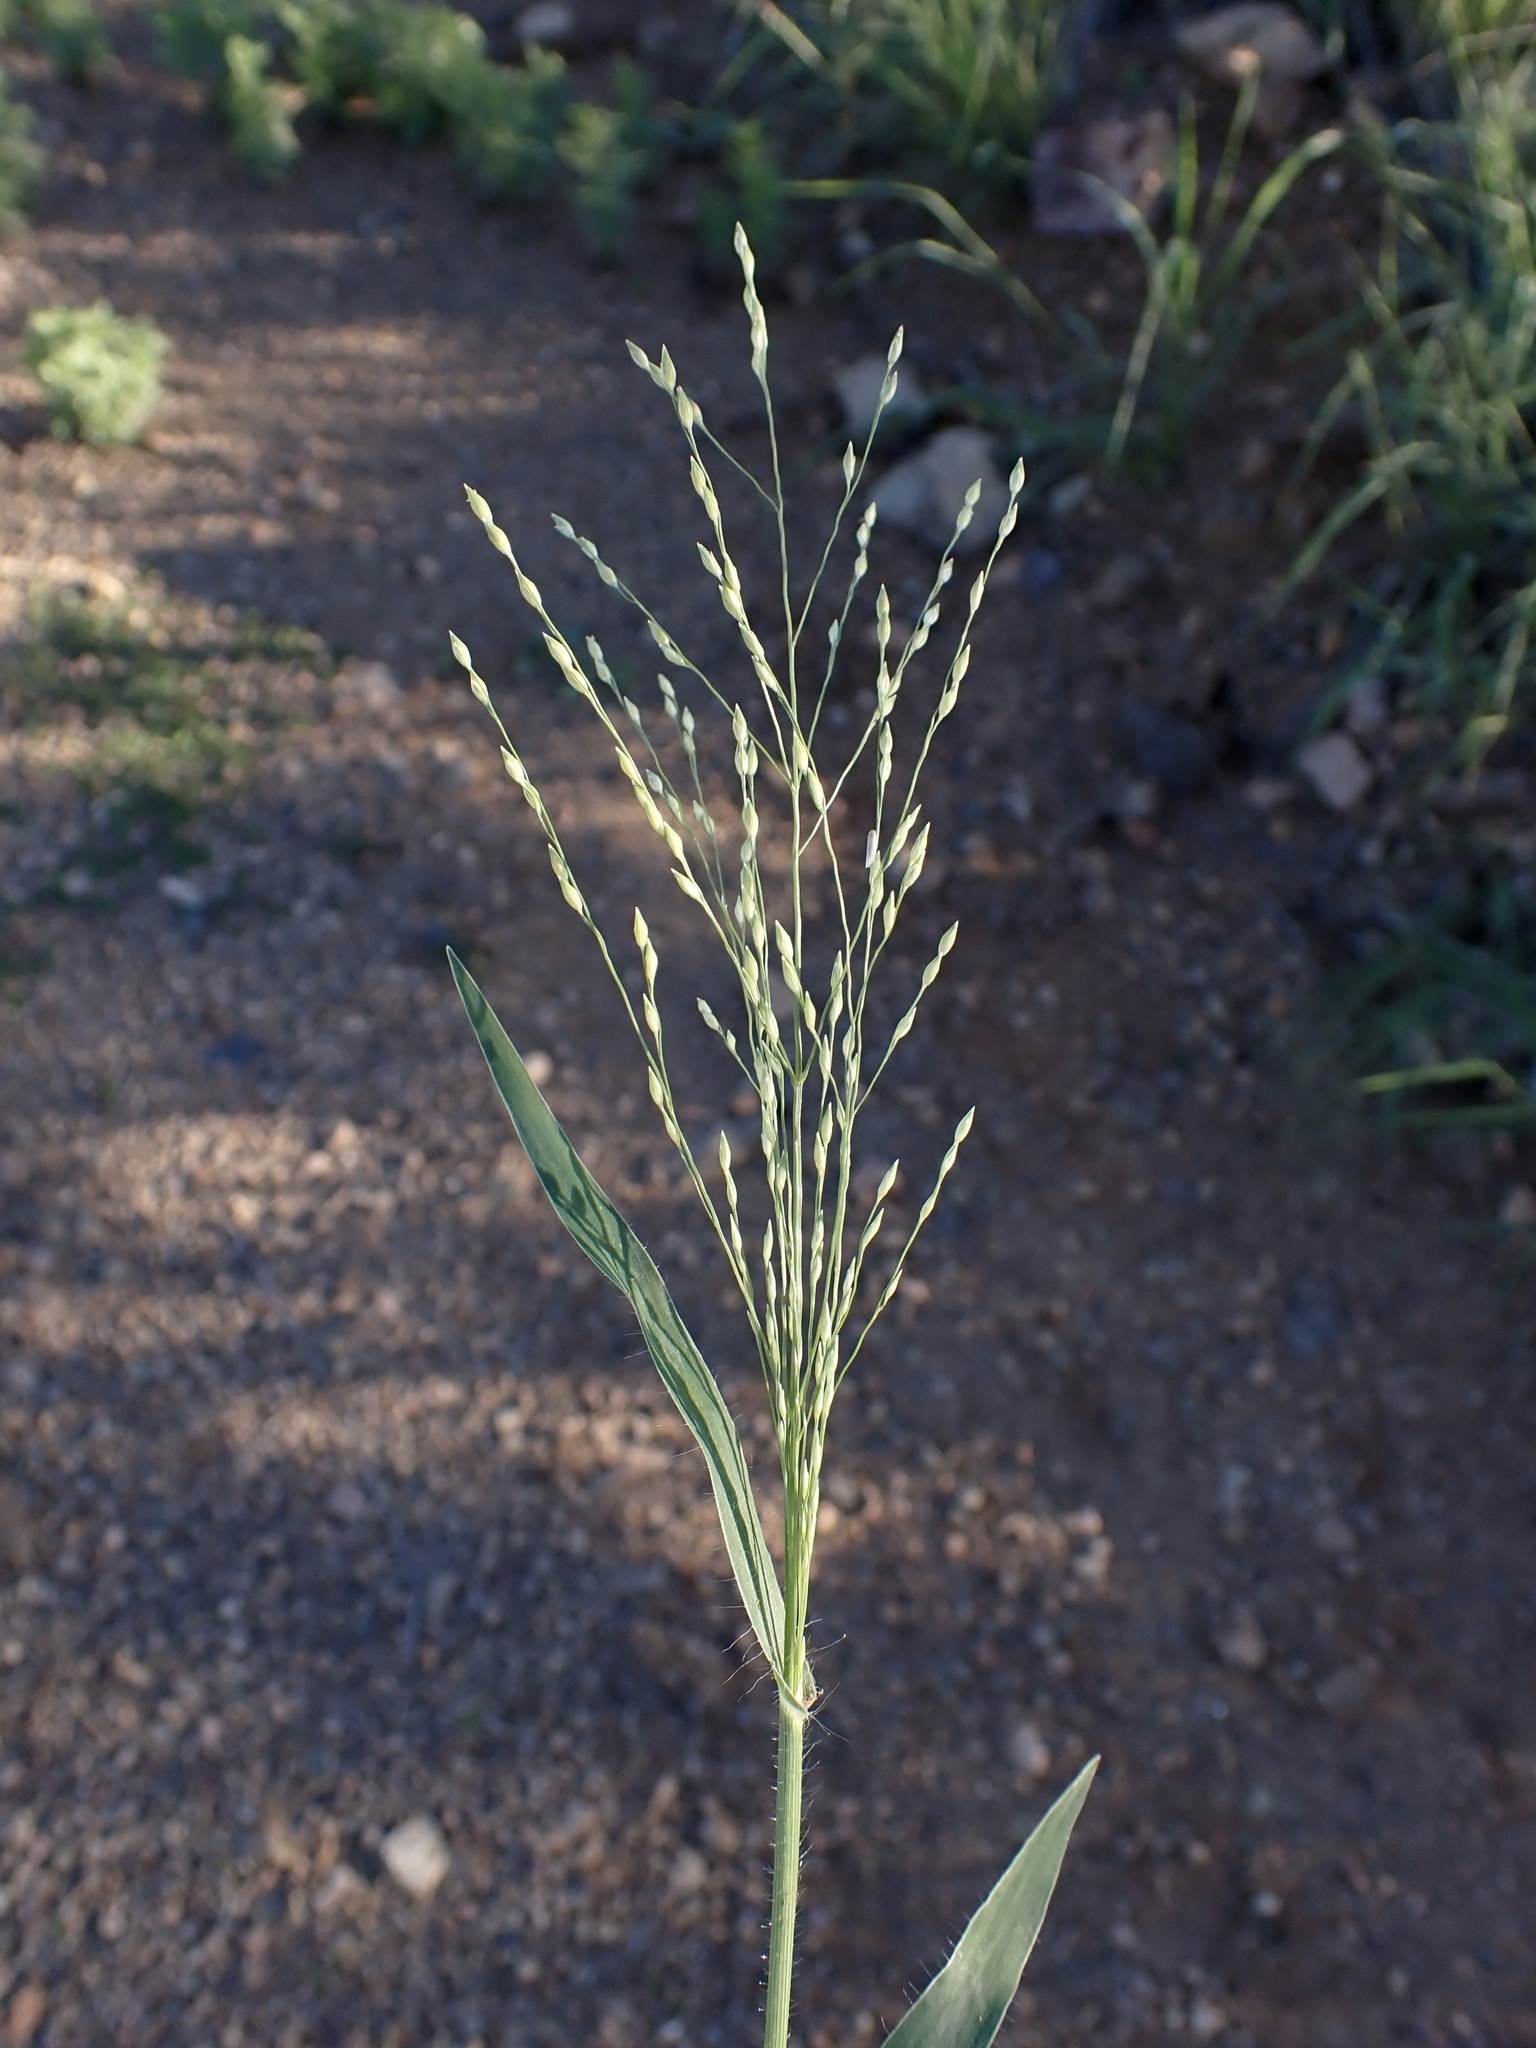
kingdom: Plantae
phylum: Tracheophyta
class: Liliopsida
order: Poales
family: Poaceae
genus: Panicum
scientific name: Panicum hirticaule
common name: Rough-stalk witchgrass
